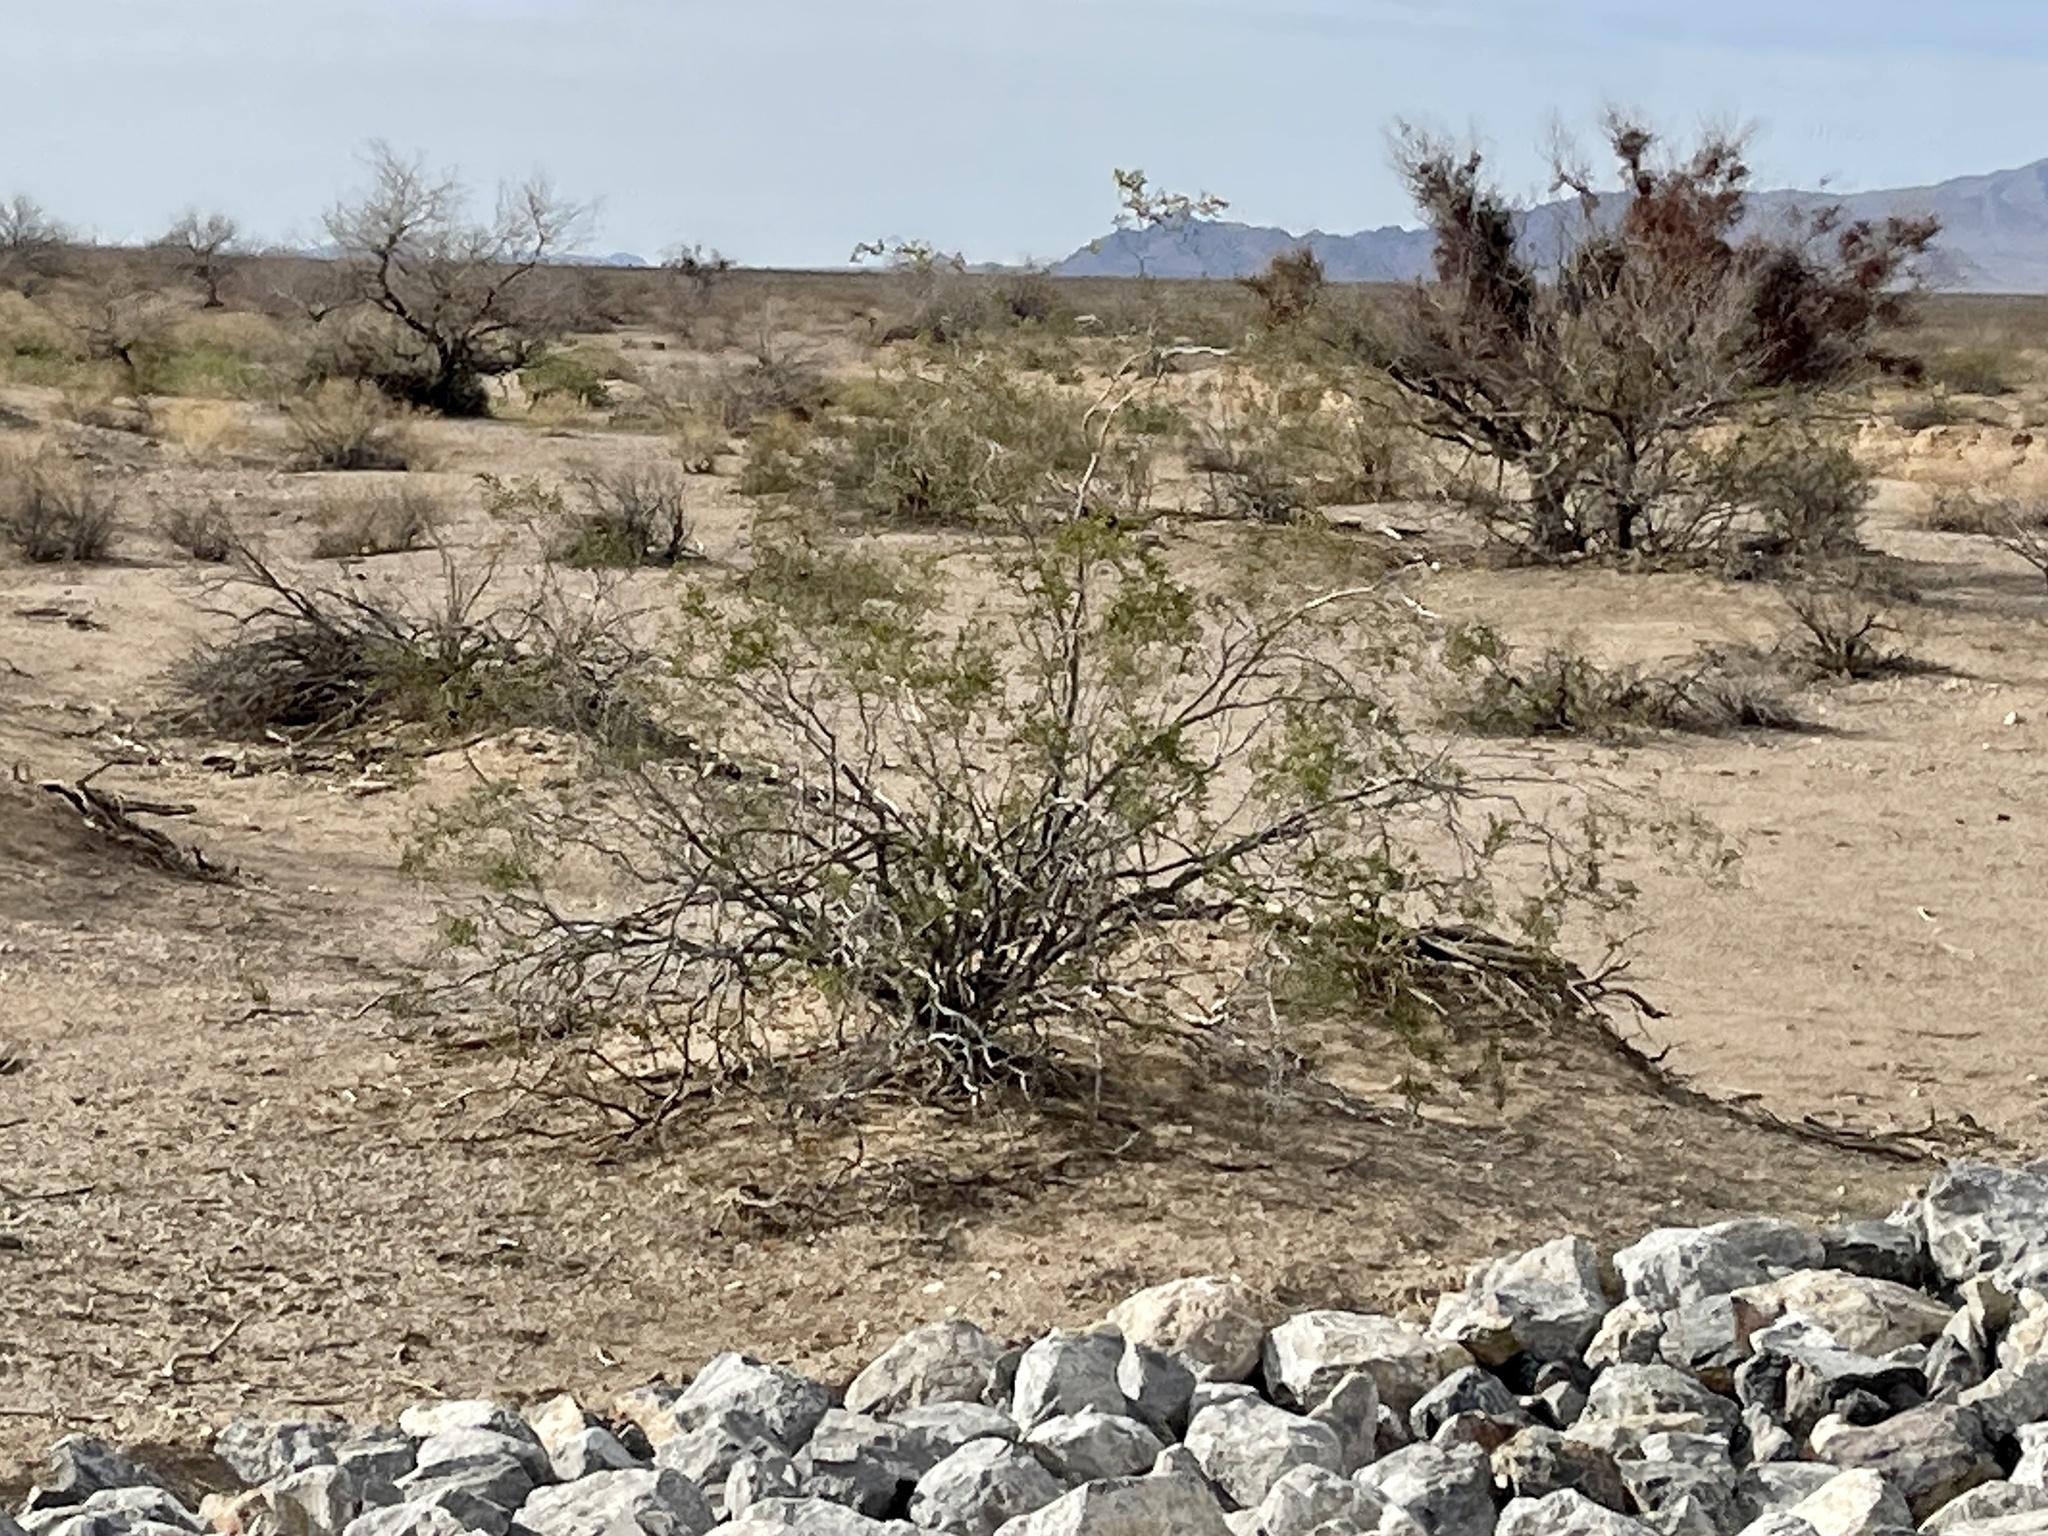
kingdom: Plantae
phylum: Tracheophyta
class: Magnoliopsida
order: Zygophyllales
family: Zygophyllaceae
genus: Larrea
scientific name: Larrea tridentata
